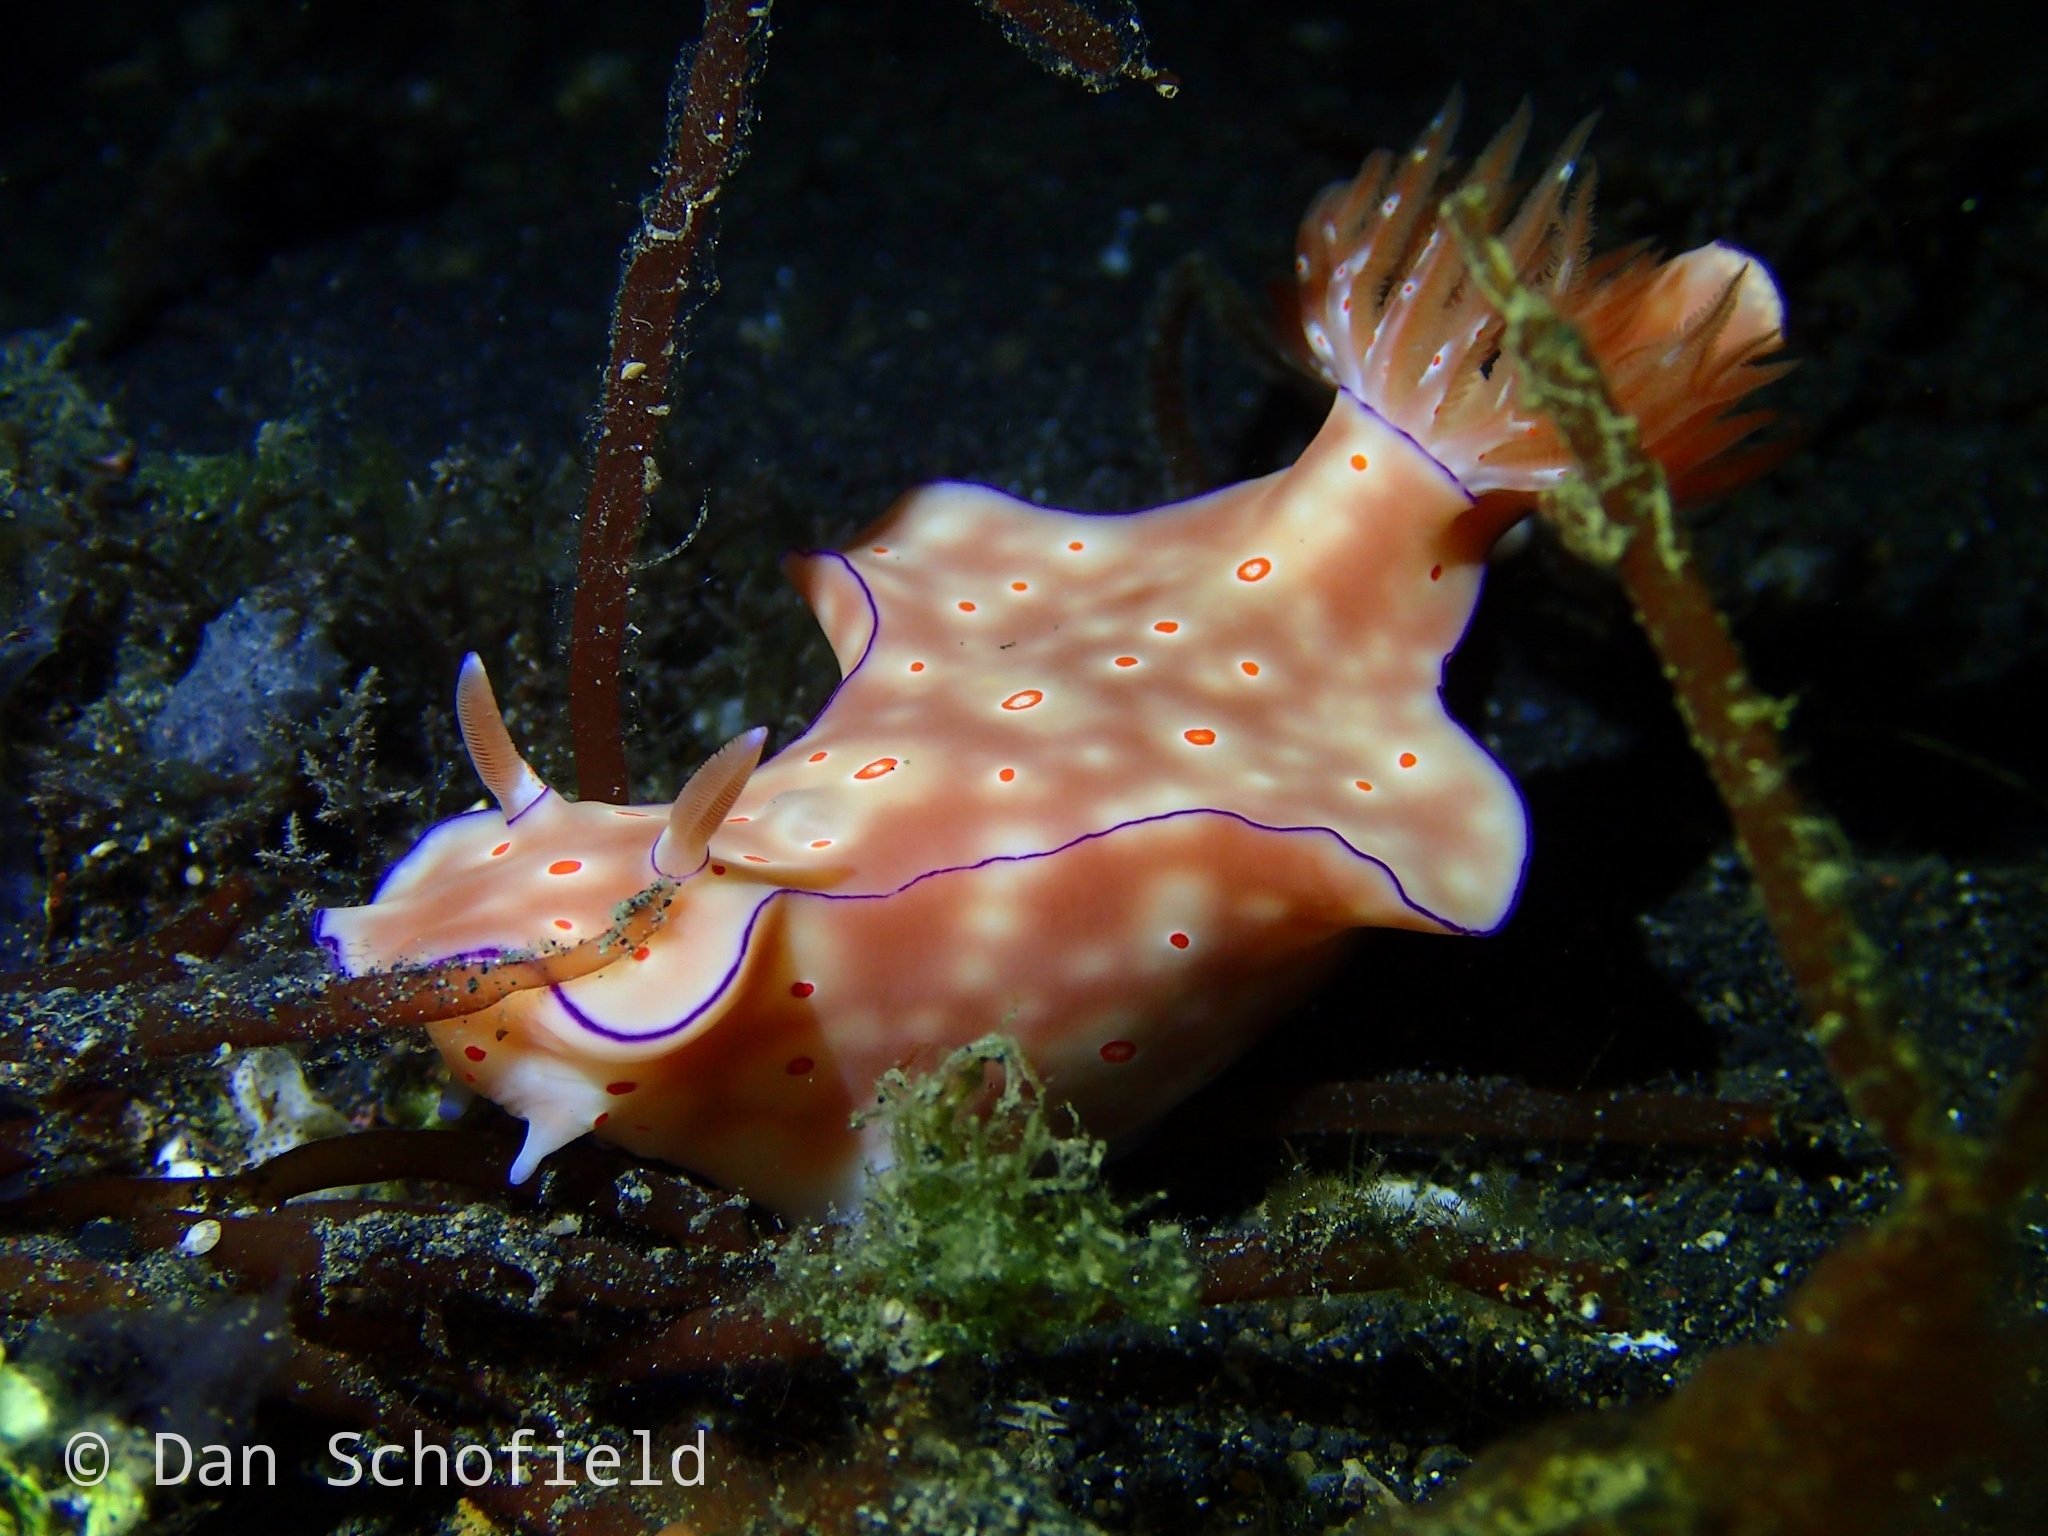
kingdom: Animalia
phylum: Mollusca
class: Gastropoda
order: Nudibranchia
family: Chromodorididae
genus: Ceratosoma
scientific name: Ceratosoma trilobatum
